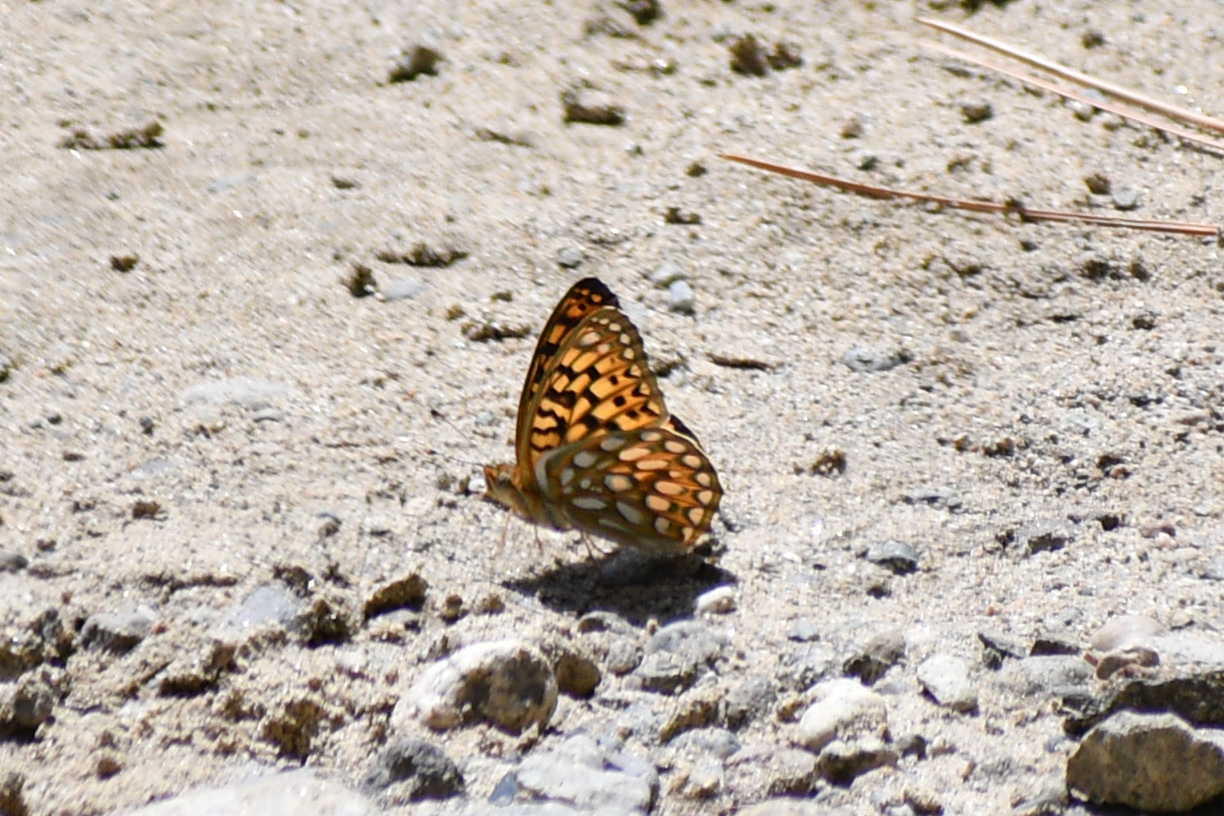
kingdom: Animalia
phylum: Arthropoda
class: Insecta
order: Lepidoptera
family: Nymphalidae
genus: Speyeria
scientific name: Speyeria callippe
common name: Callippe fritillary
